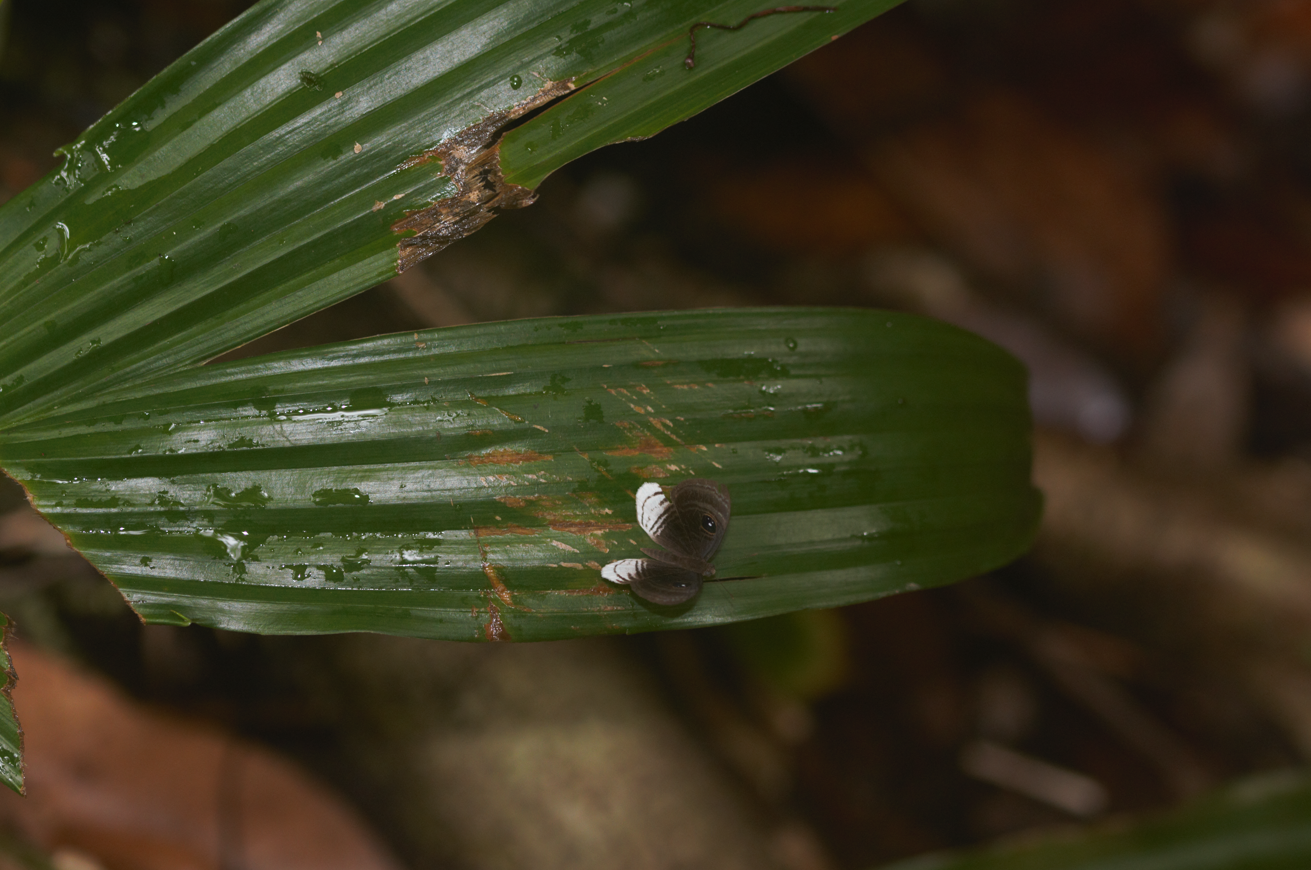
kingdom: Animalia
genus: Mesosemia
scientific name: Mesosemia
